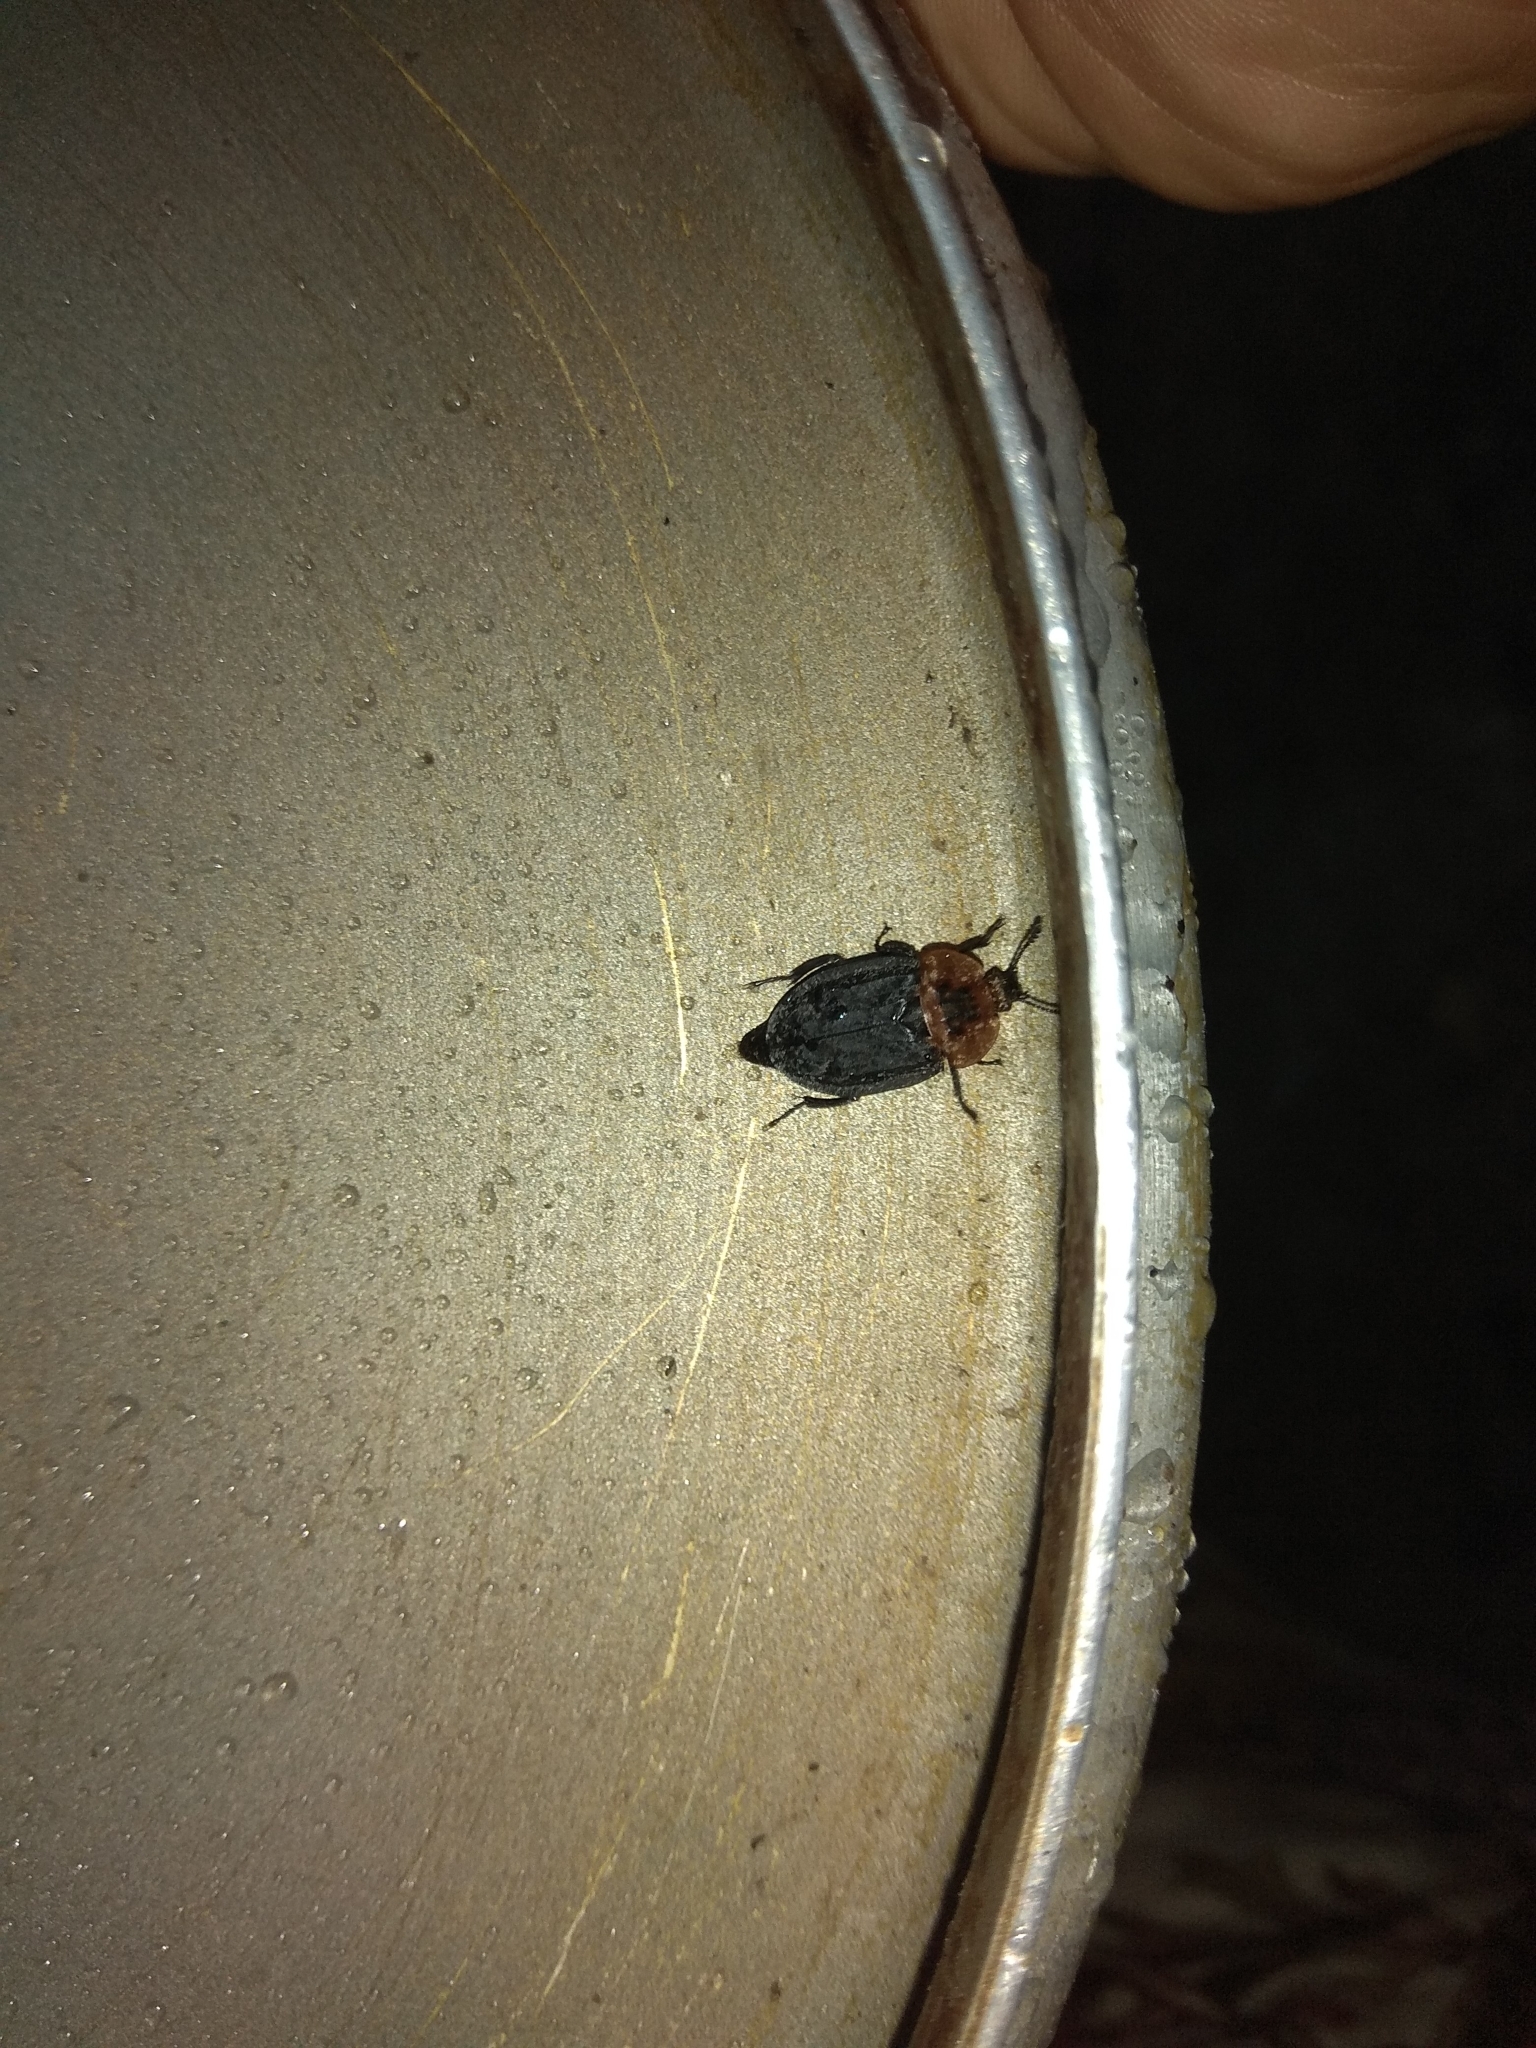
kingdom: Animalia
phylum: Arthropoda
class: Insecta
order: Coleoptera
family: Staphylinidae
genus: Oiceoptoma
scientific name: Oiceoptoma thoracicum
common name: Red-breasted carrion beetle
